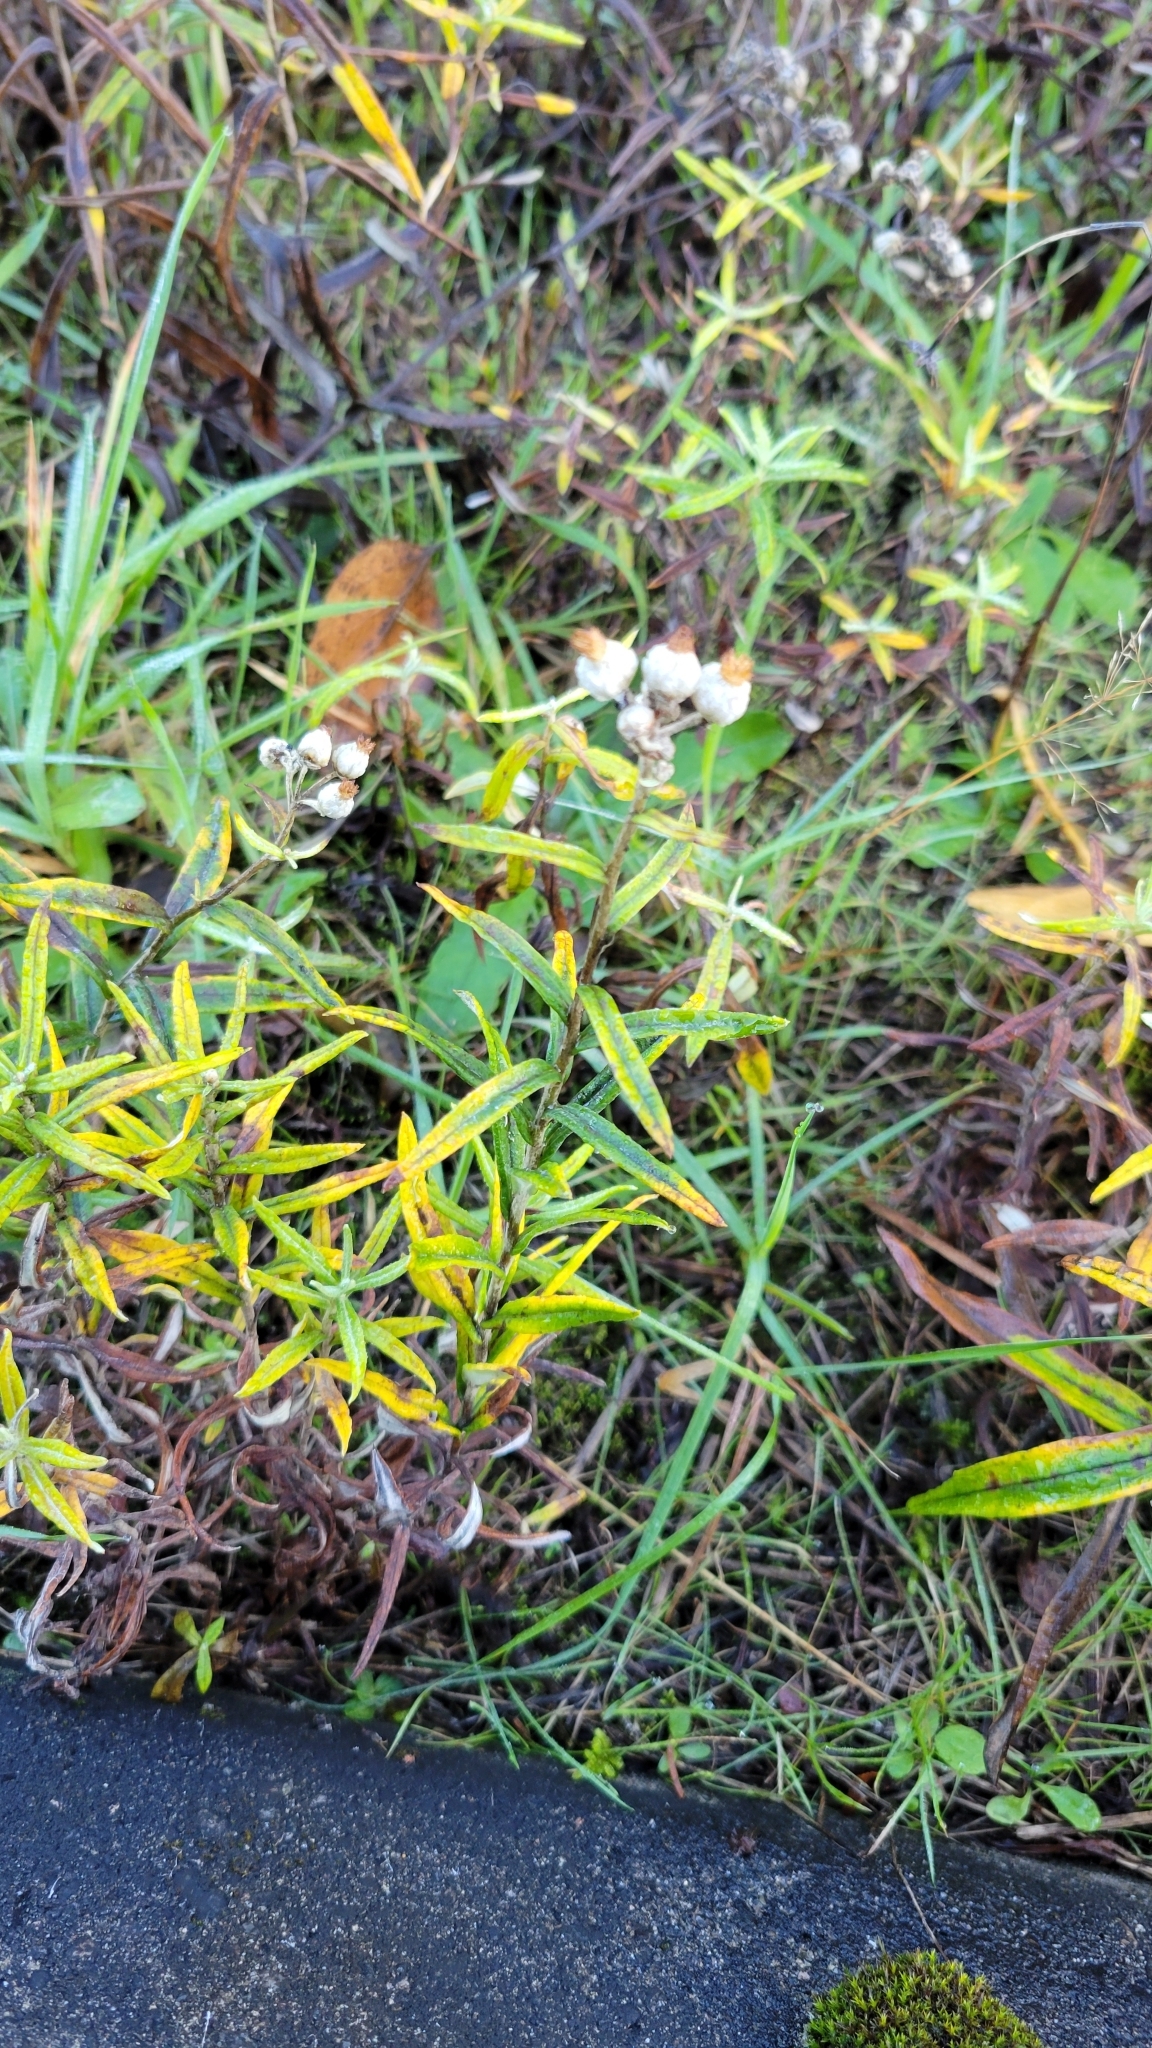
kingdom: Plantae
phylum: Tracheophyta
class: Magnoliopsida
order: Asterales
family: Asteraceae
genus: Anaphalis
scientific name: Anaphalis margaritacea
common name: Pearly everlasting
